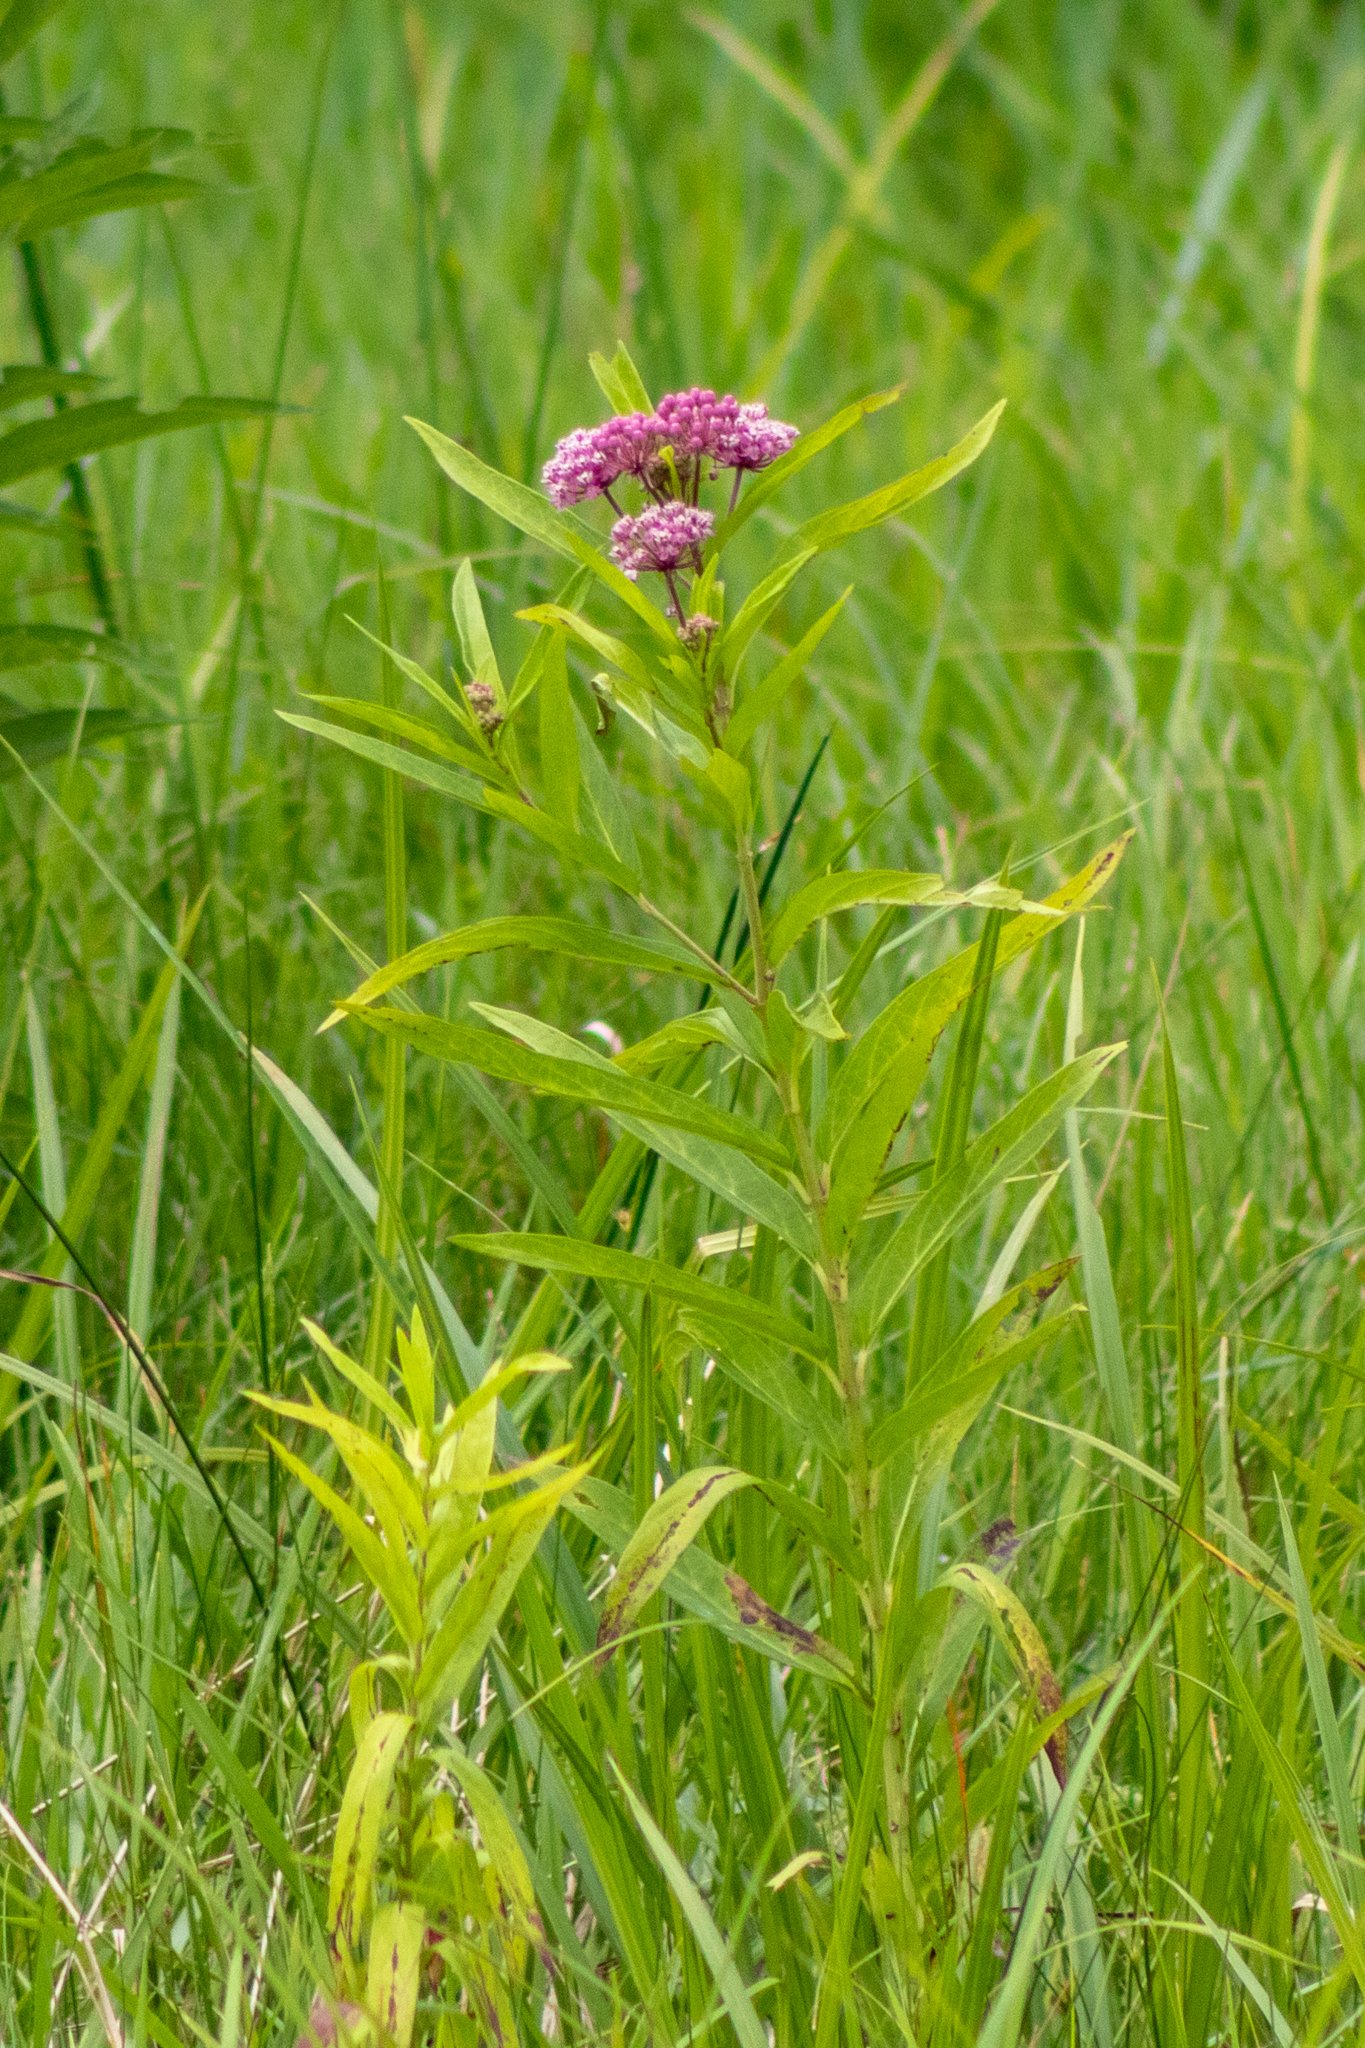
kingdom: Plantae
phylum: Tracheophyta
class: Magnoliopsida
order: Gentianales
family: Apocynaceae
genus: Asclepias
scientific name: Asclepias incarnata
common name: Swamp milkweed
